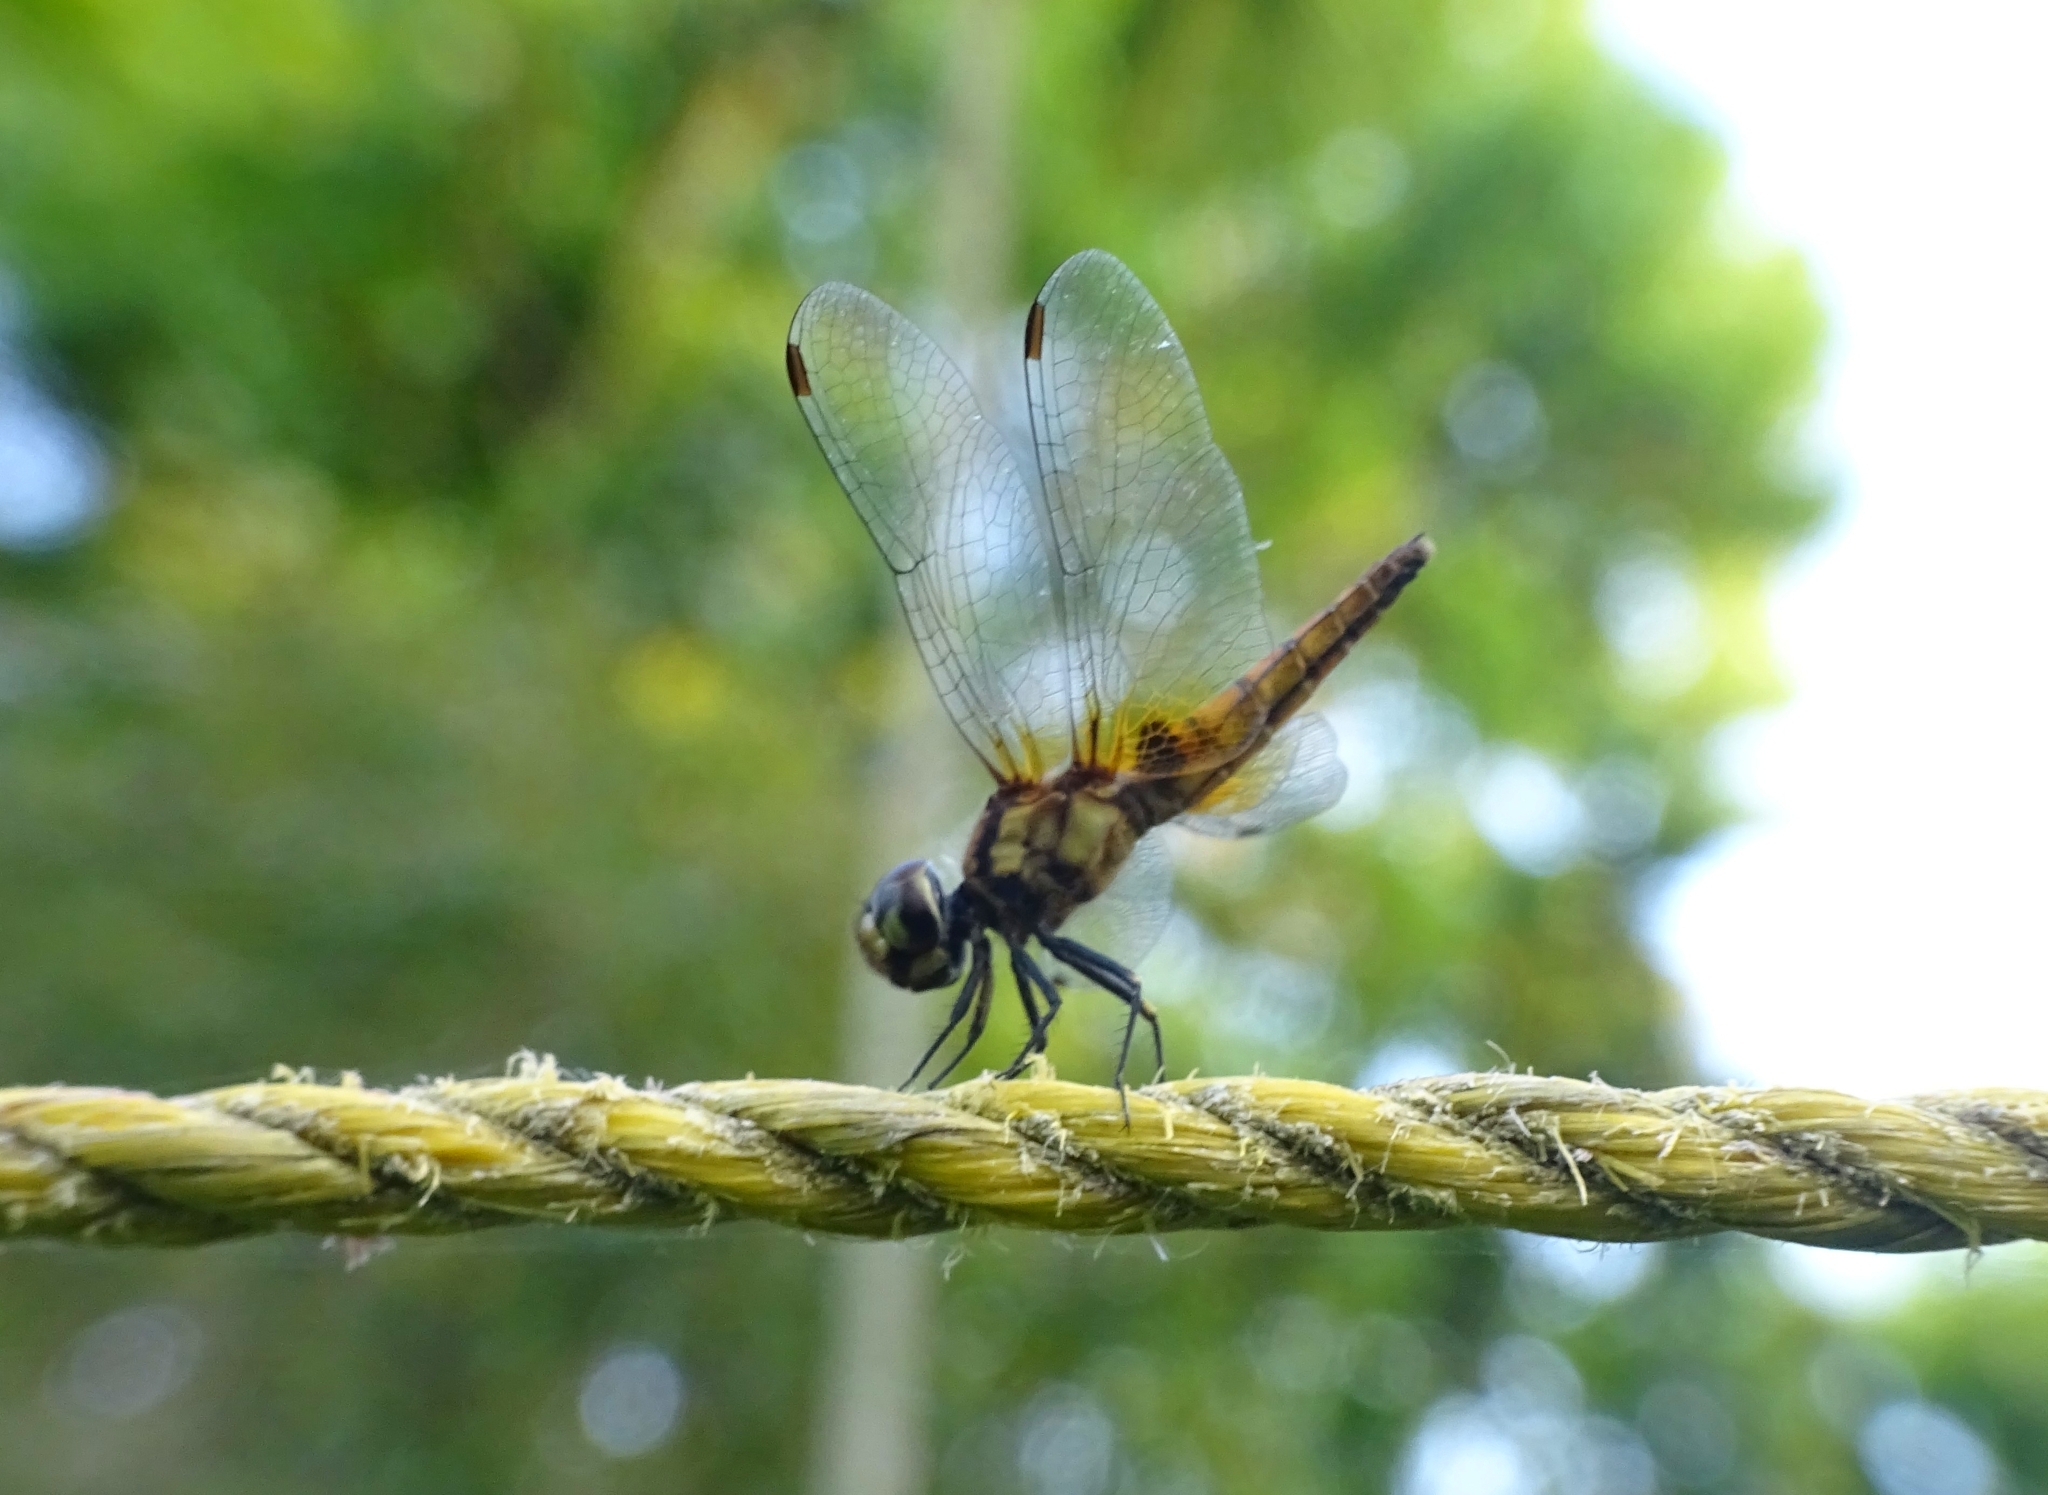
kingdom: Animalia
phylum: Arthropoda
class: Insecta
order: Odonata
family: Libellulidae
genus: Aethriamanta
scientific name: Aethriamanta brevipennis
